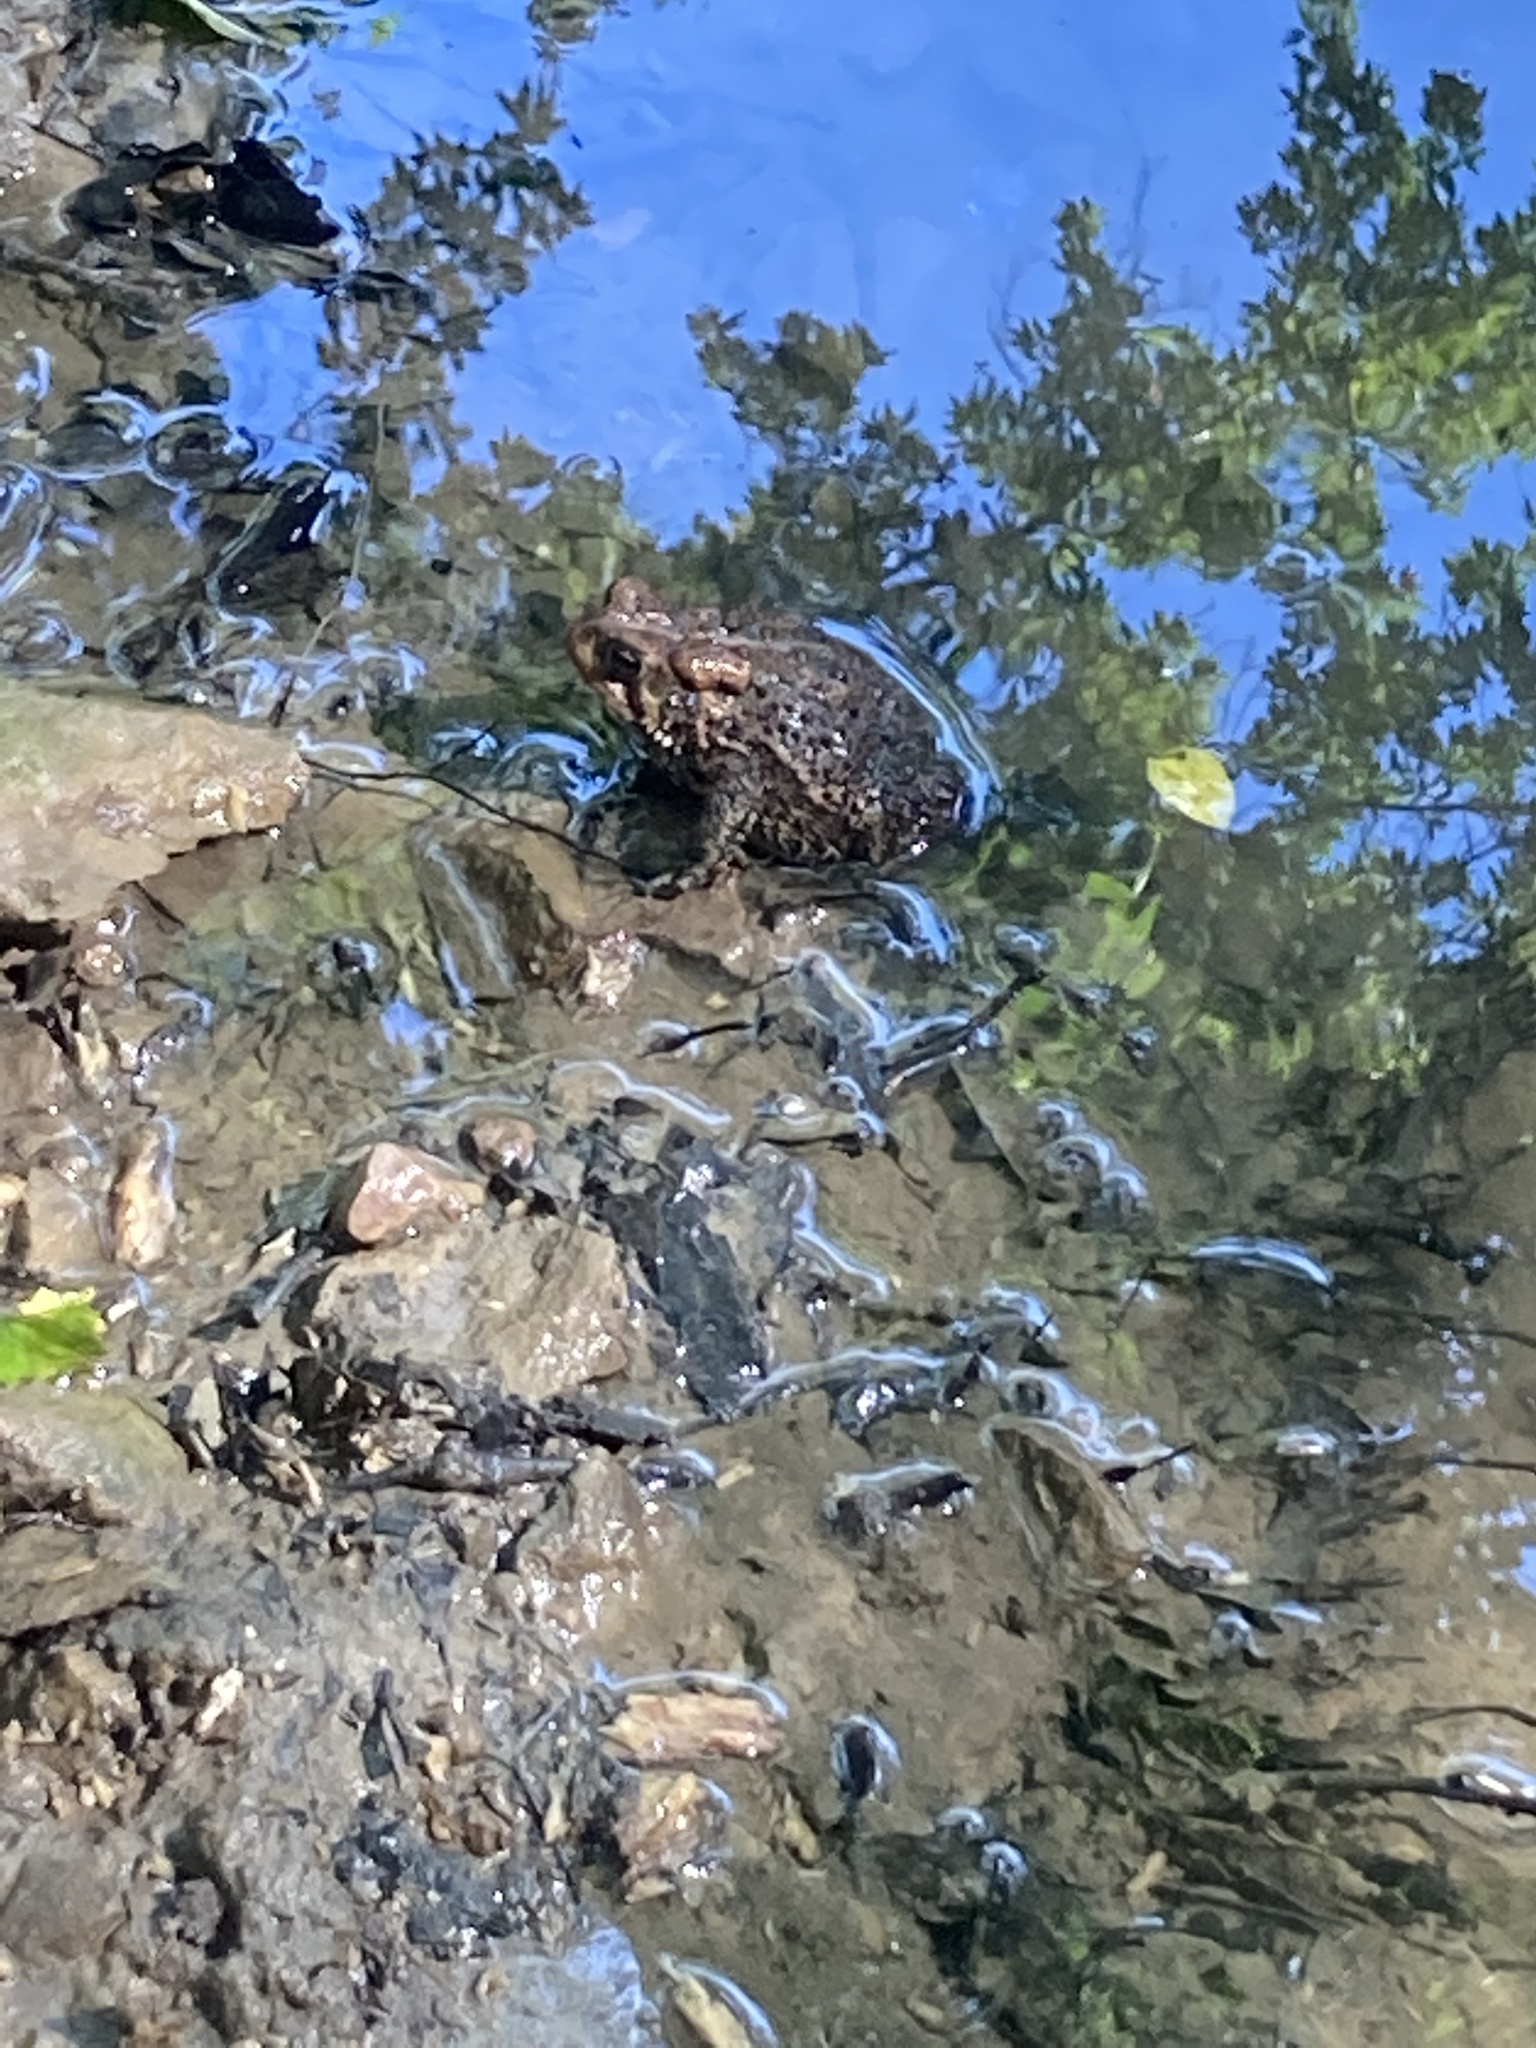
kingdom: Animalia
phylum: Chordata
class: Amphibia
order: Anura
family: Bufonidae
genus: Anaxyrus
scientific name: Anaxyrus americanus
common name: American toad
